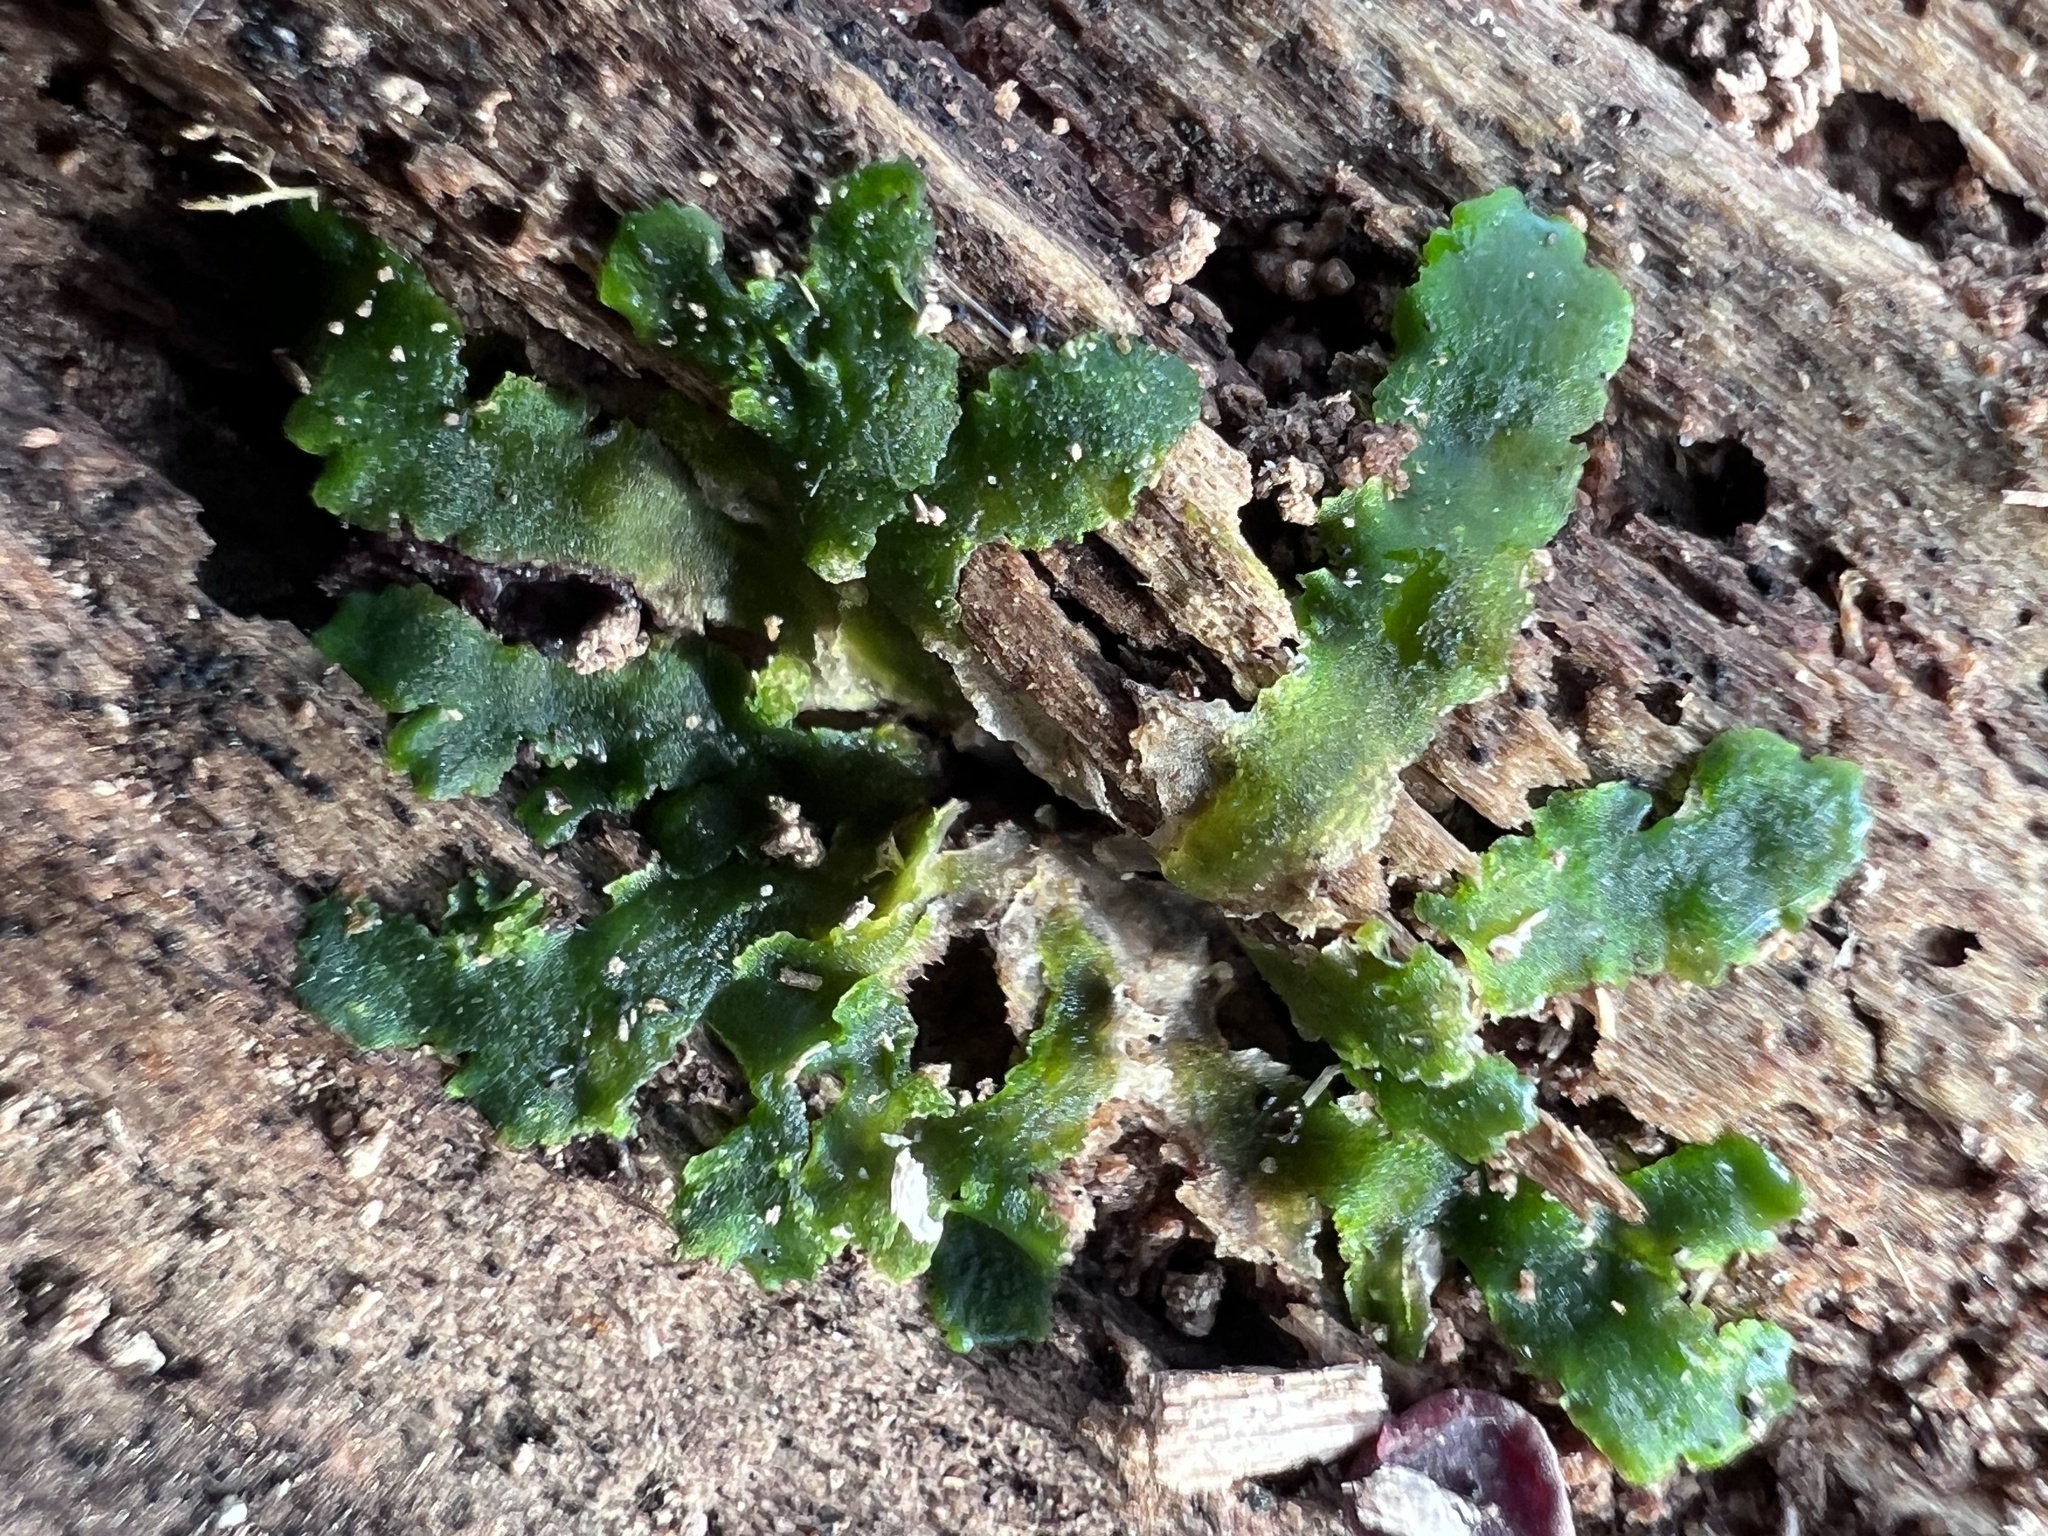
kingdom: Plantae
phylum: Marchantiophyta
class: Jungermanniopsida
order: Metzgeriales
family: Aneuraceae
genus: Aneura
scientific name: Aneura pinguis
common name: Common greasewort
